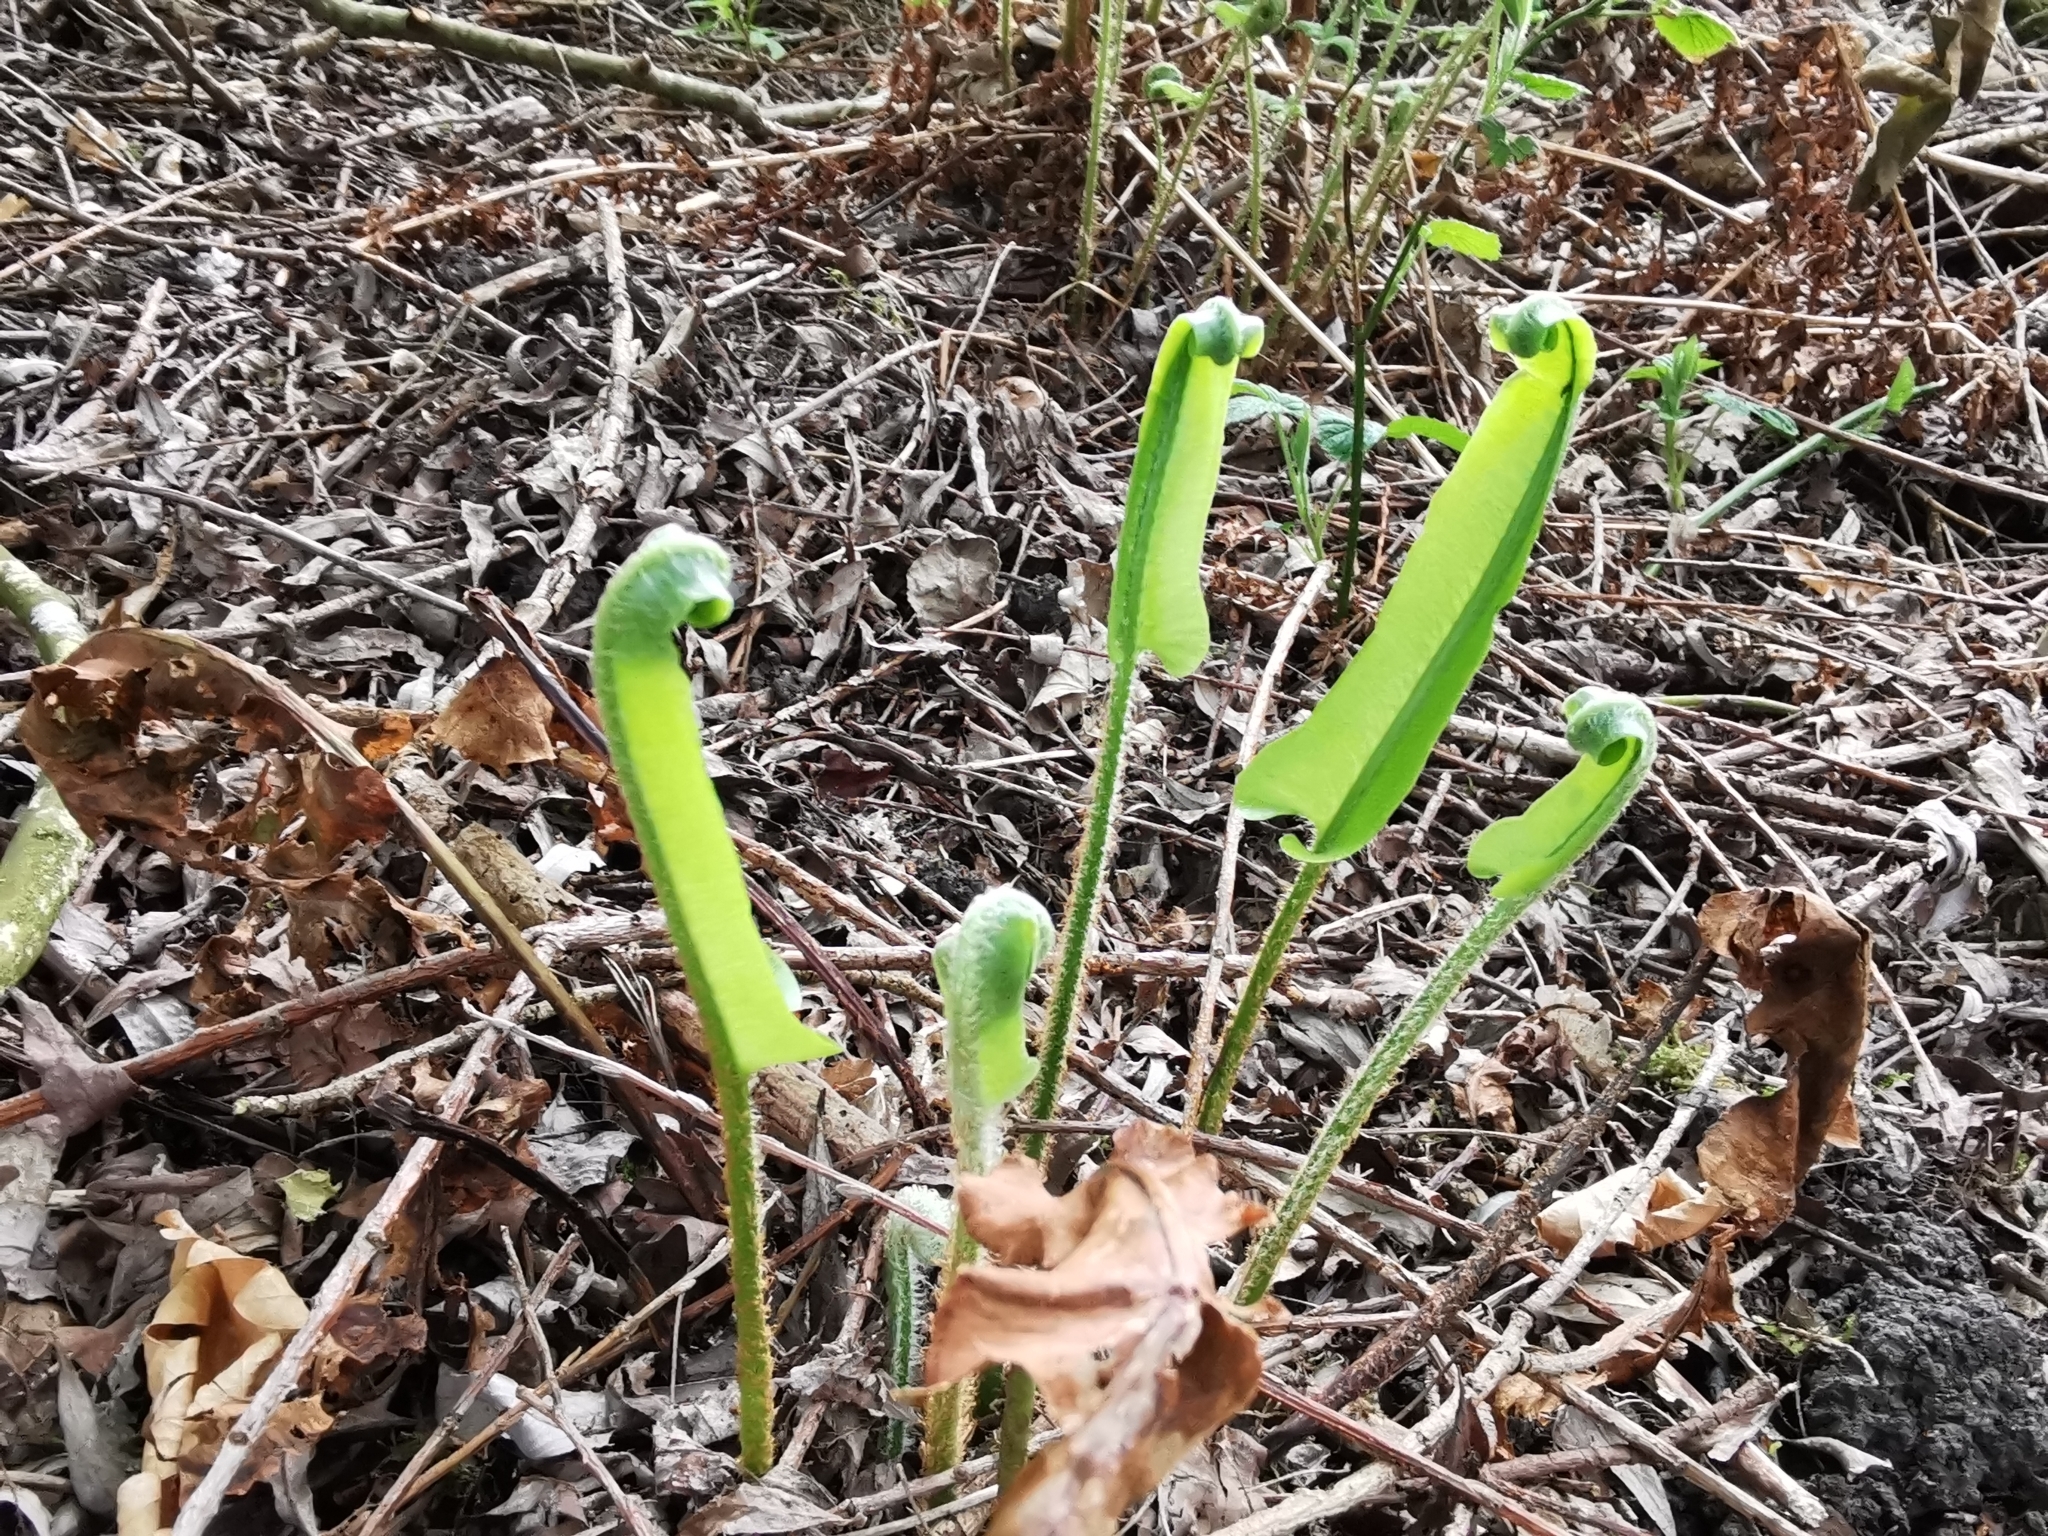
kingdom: Plantae
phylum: Tracheophyta
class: Polypodiopsida
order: Polypodiales
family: Aspleniaceae
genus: Asplenium
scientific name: Asplenium scolopendrium
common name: Hart's-tongue fern
